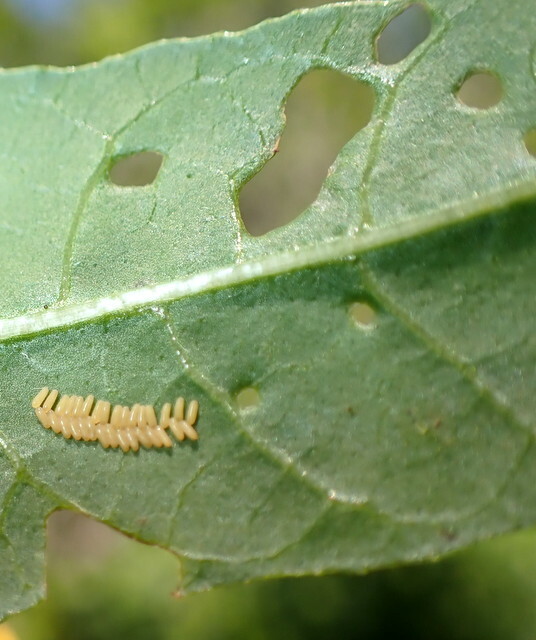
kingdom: Animalia
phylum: Arthropoda
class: Insecta
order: Coleoptera
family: Chrysomelidae
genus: Agasicles
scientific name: Agasicles hygrophila
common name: Alligatorweed flea beetle
